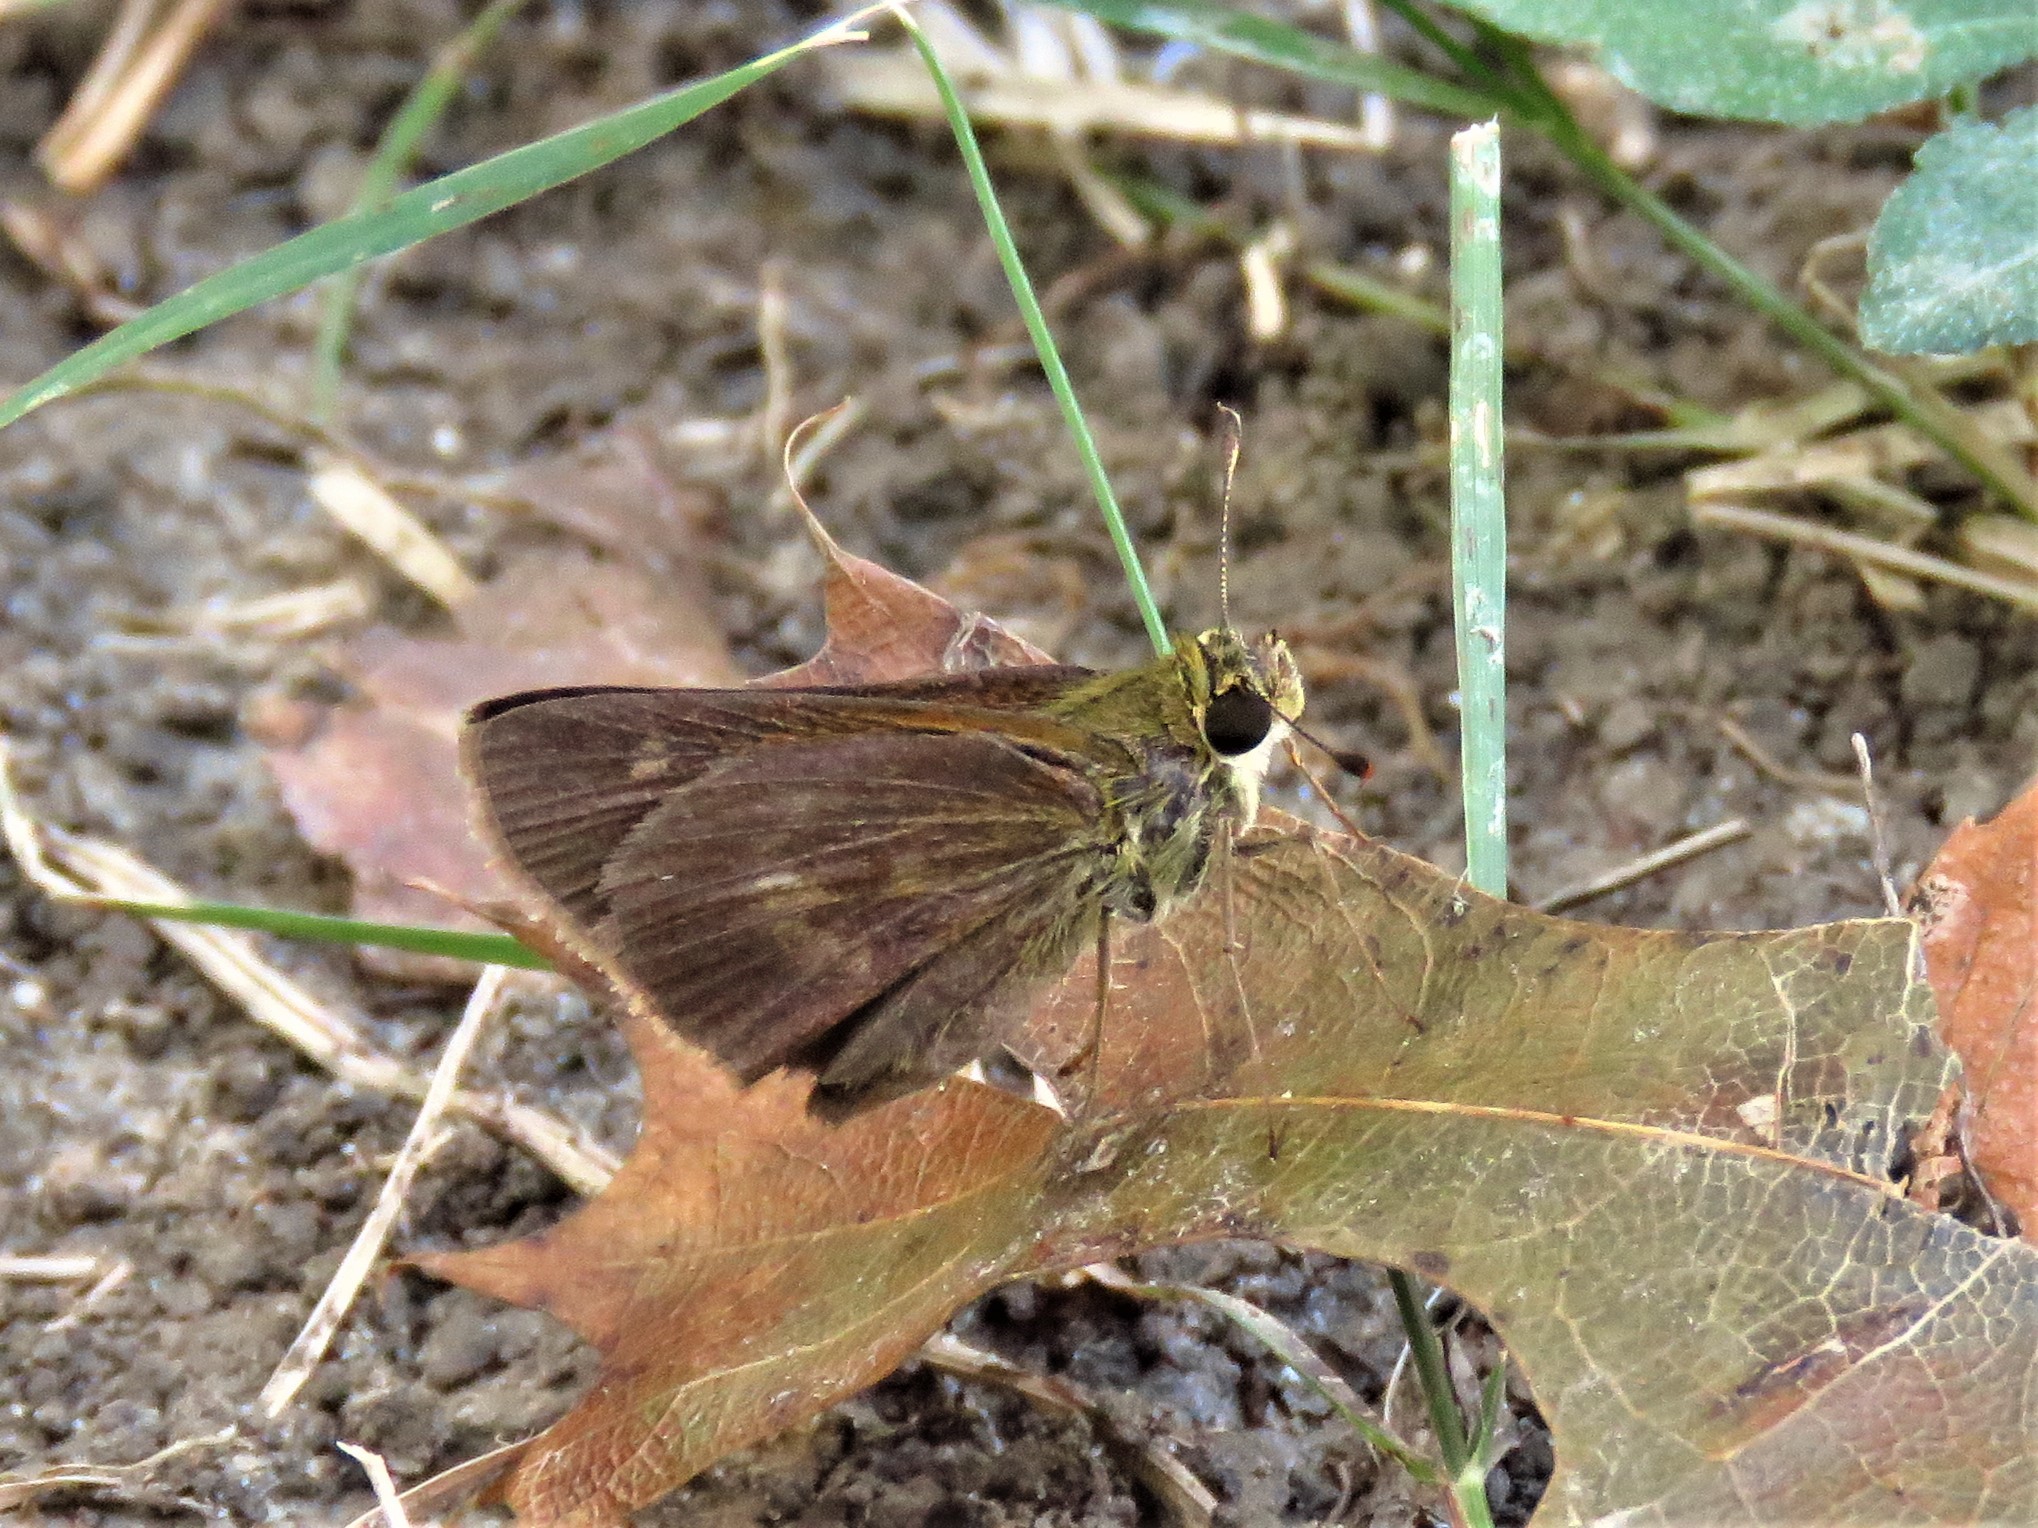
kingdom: Animalia
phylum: Arthropoda
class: Insecta
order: Lepidoptera
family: Hesperiidae
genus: Polites
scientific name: Polites egeremet
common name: Northern broken-dash
